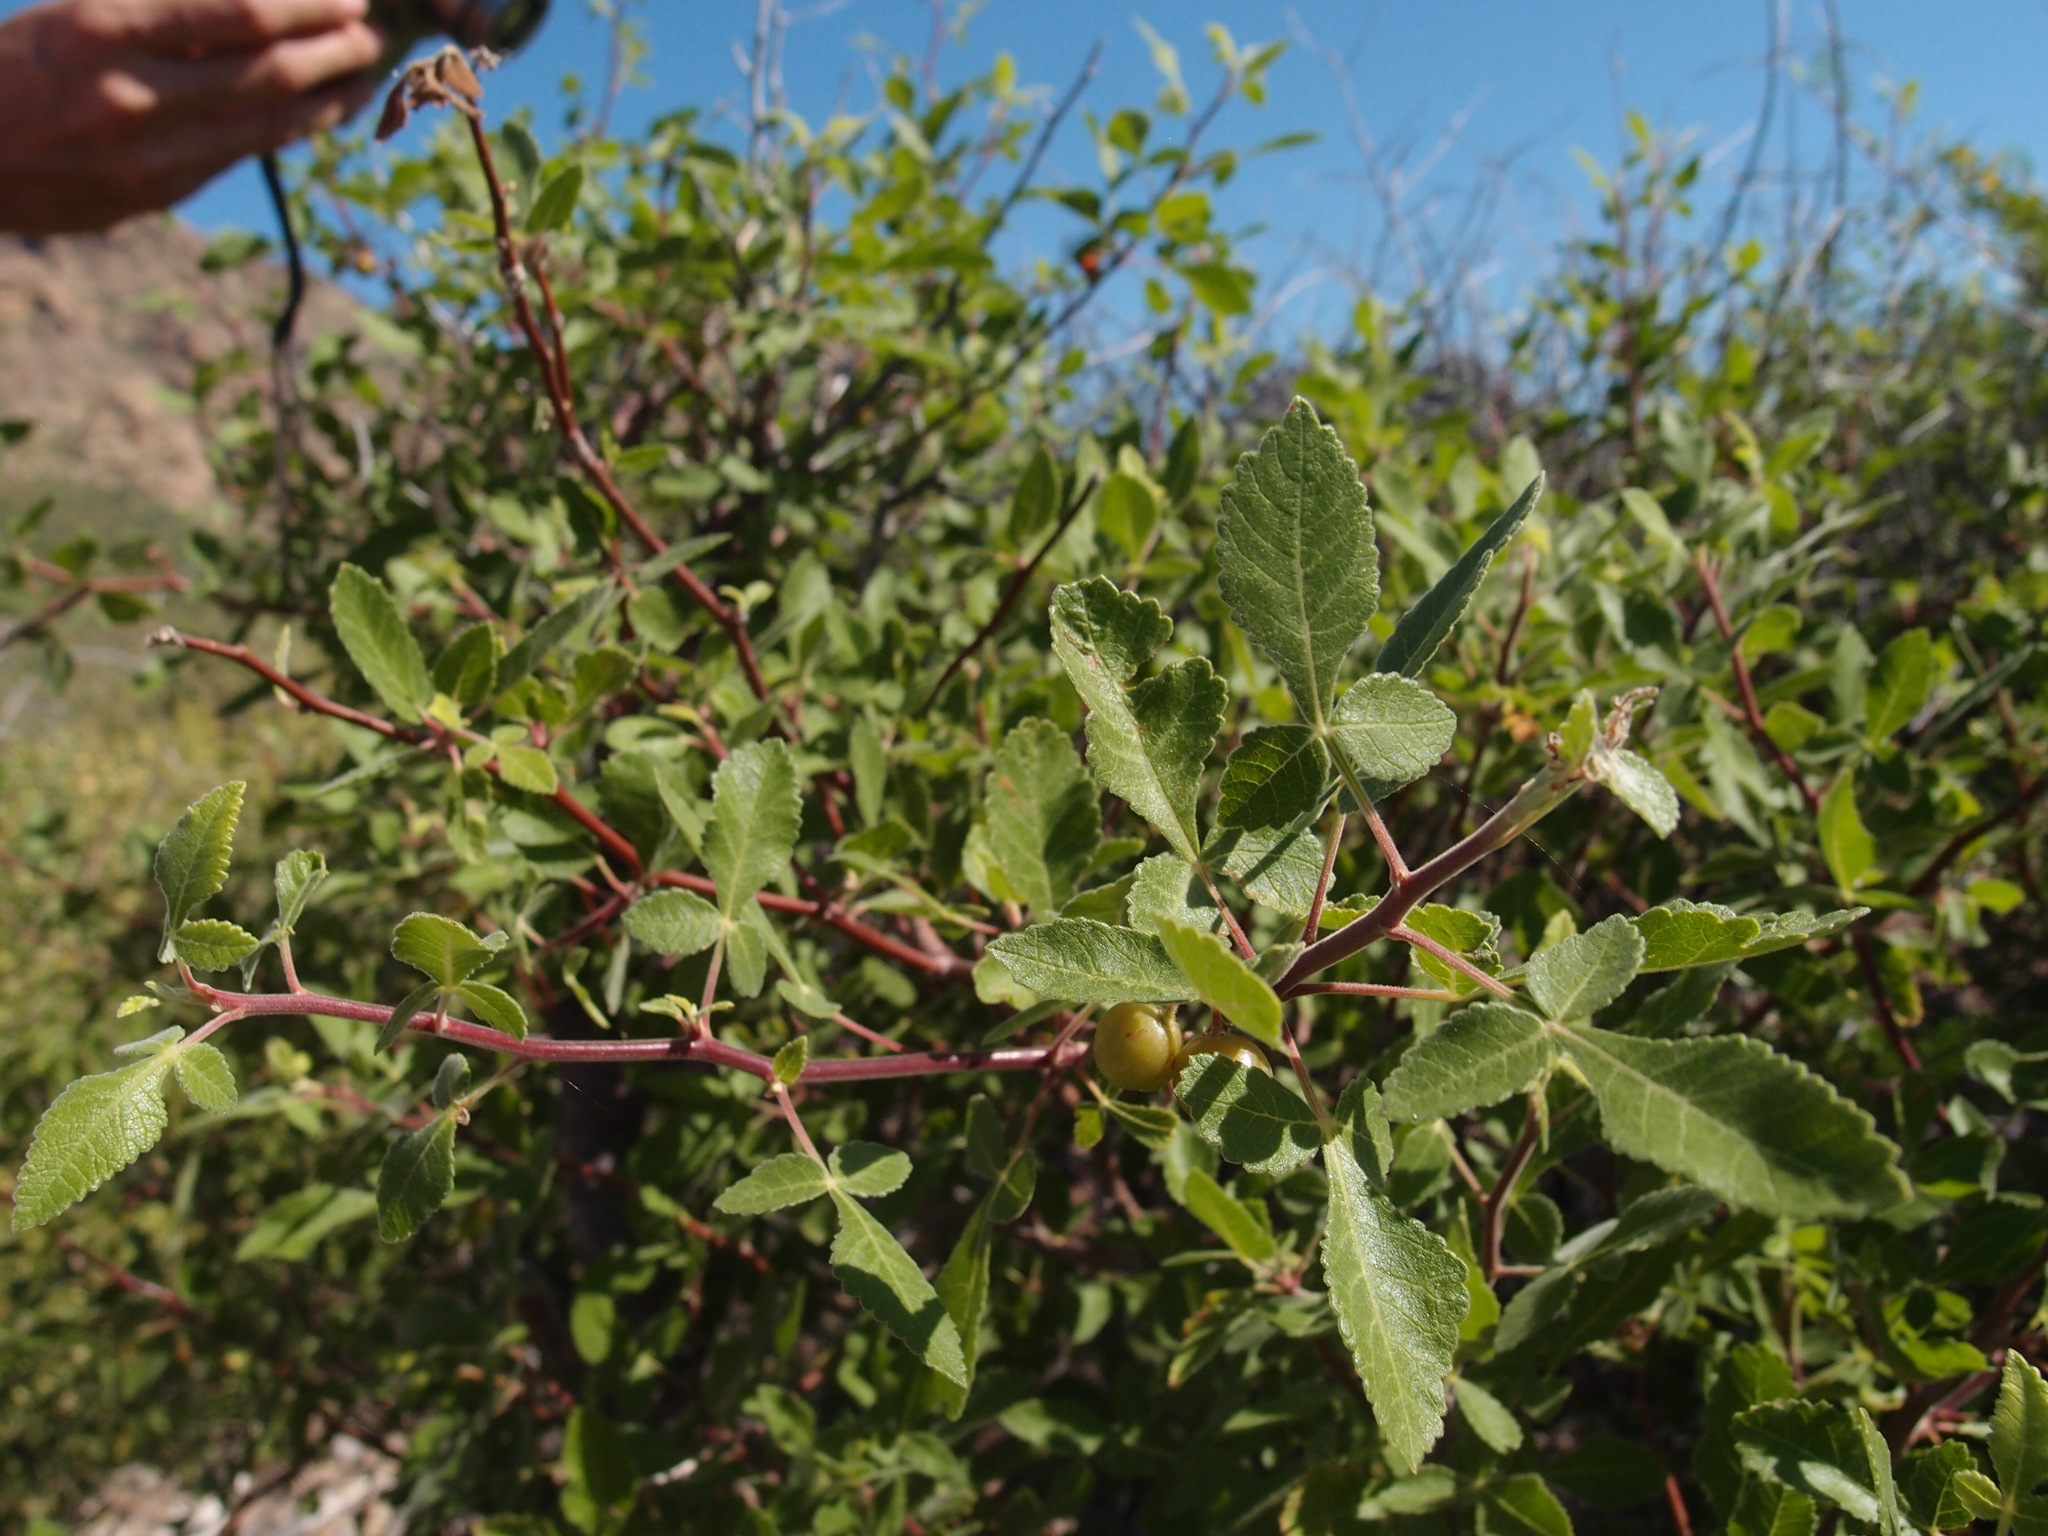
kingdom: Plantae
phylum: Tracheophyta
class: Magnoliopsida
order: Sapindales
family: Burseraceae
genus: Bursera
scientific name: Bursera hindsiana
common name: Red elephant tree
